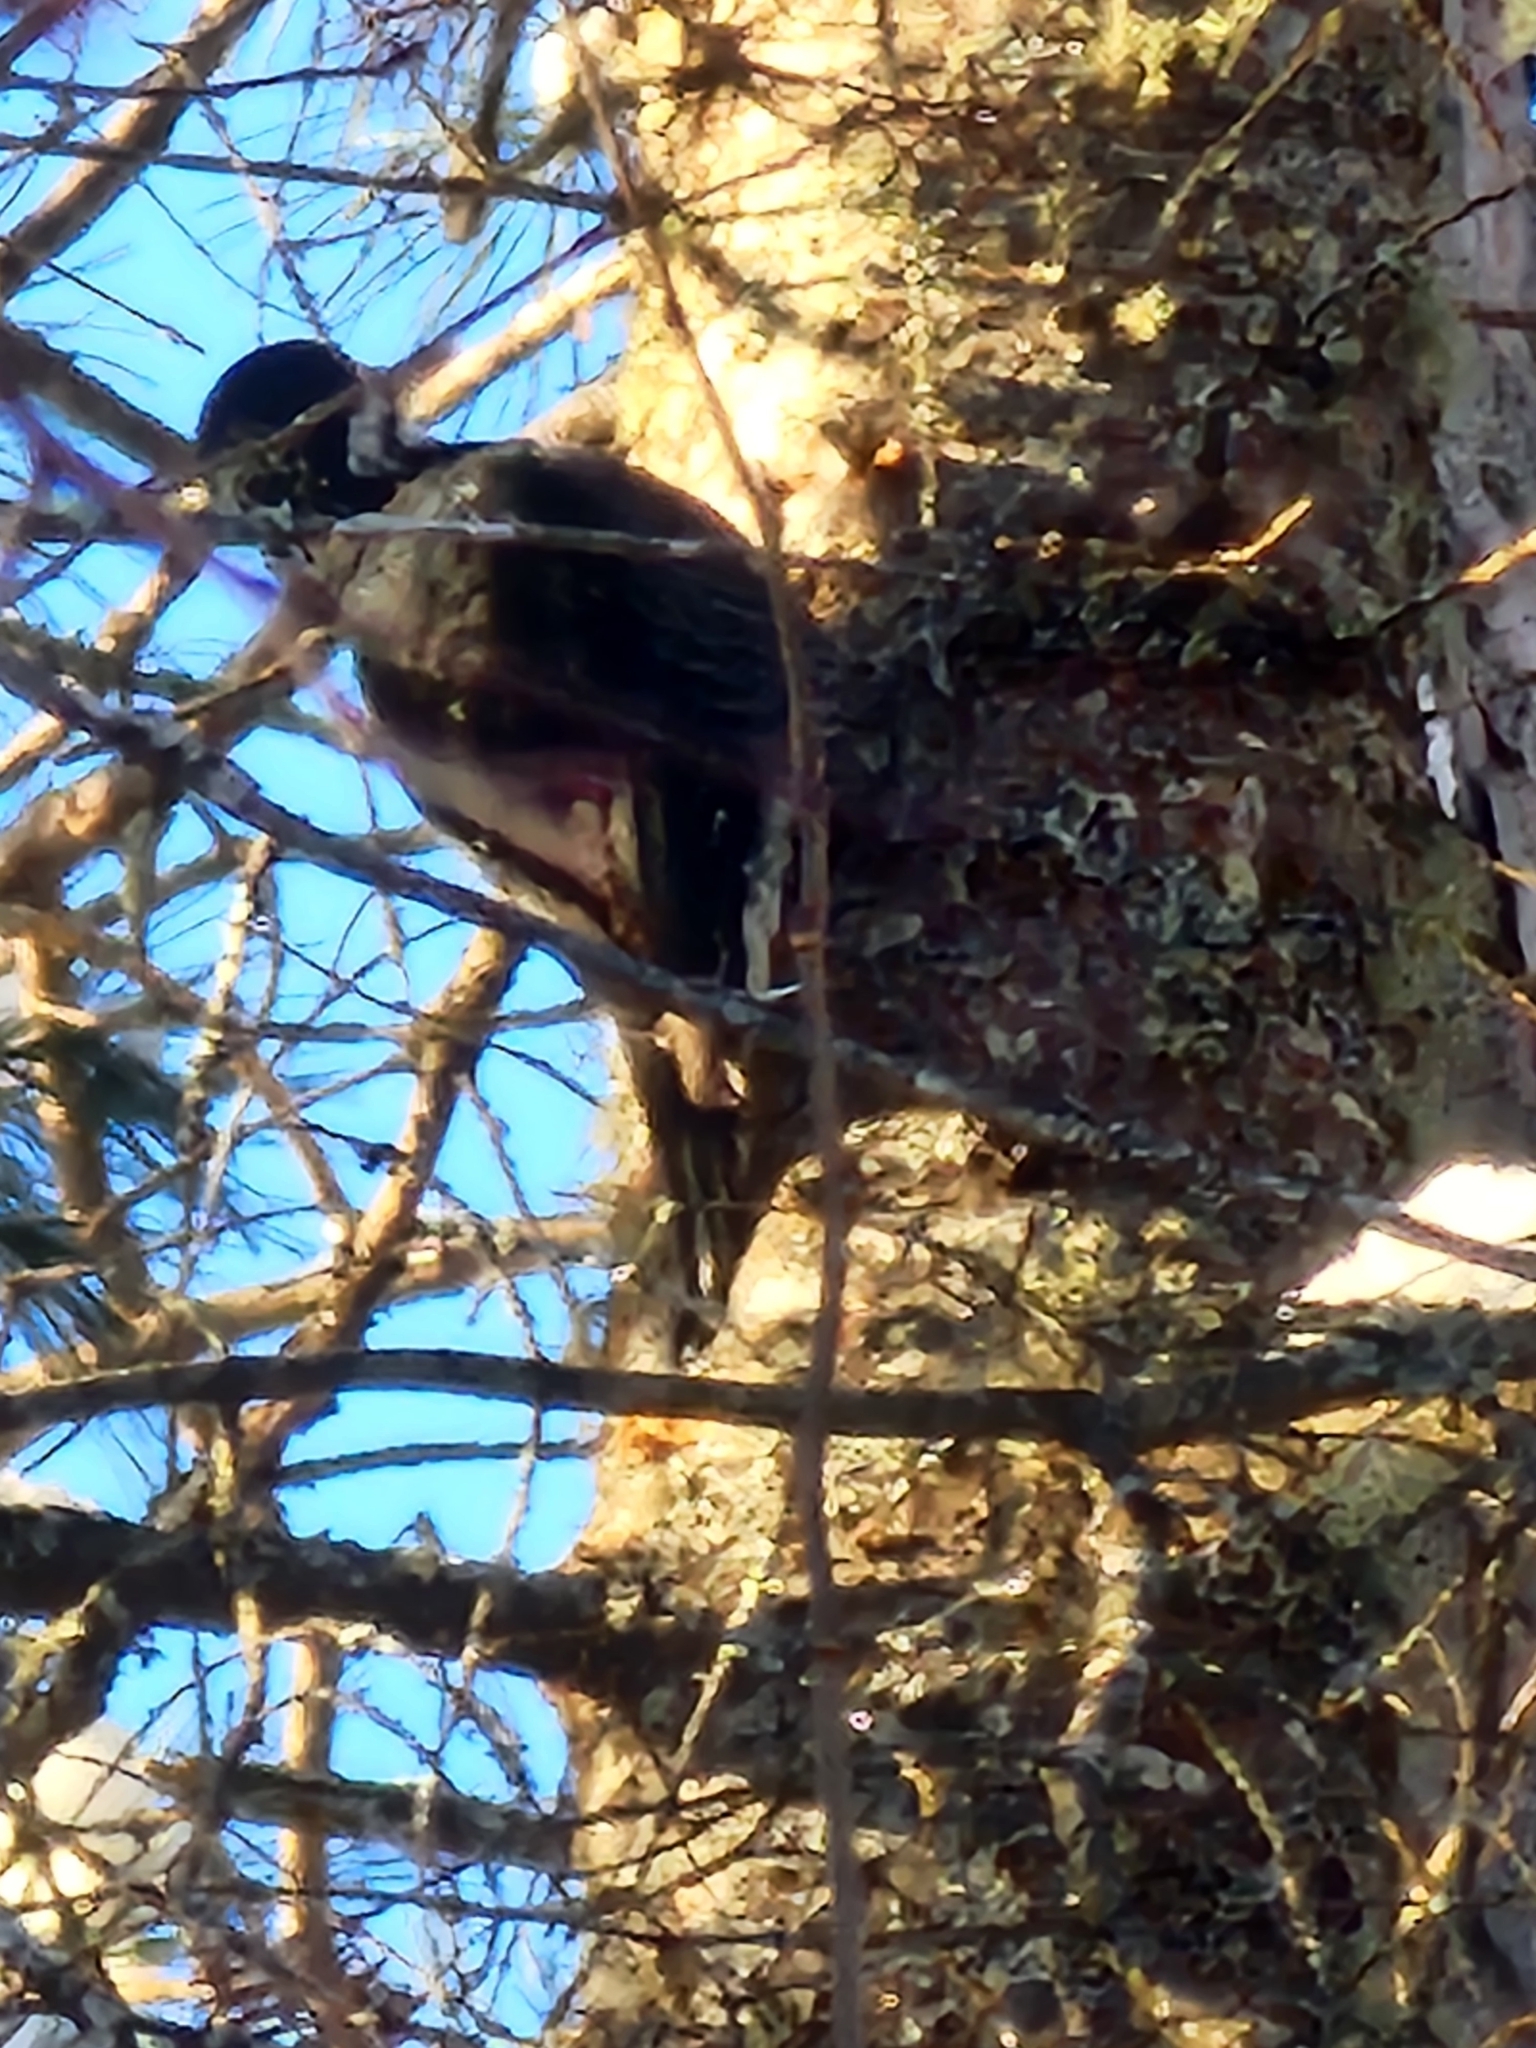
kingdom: Animalia
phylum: Chordata
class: Aves
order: Piciformes
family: Picidae
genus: Picoides
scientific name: Picoides arcticus
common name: Black-backed woodpecker
